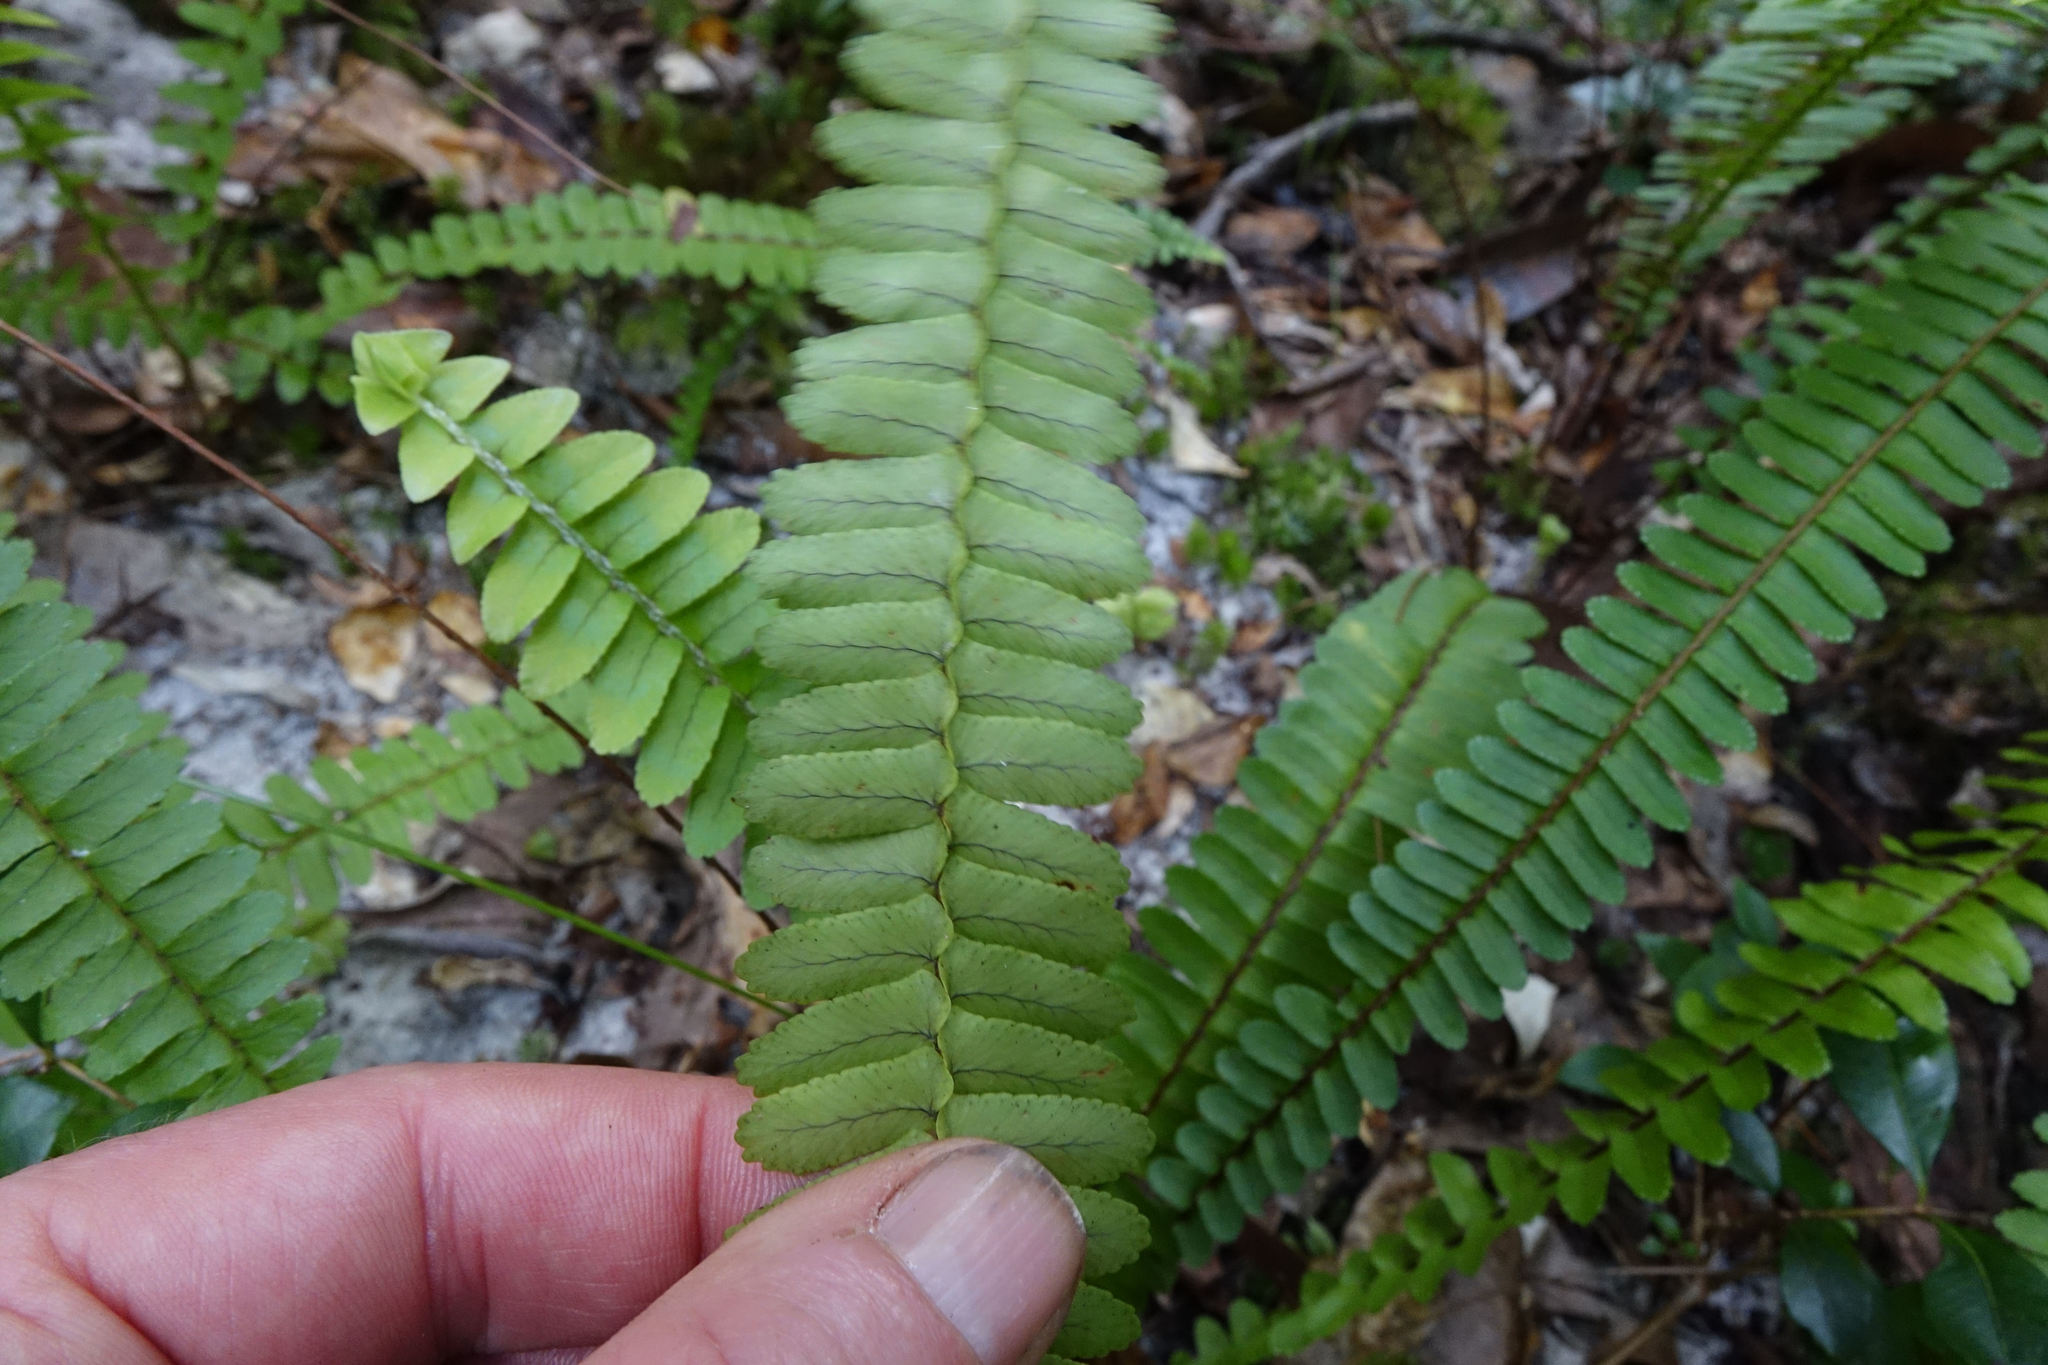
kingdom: Plantae
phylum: Tracheophyta
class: Polypodiopsida
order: Polypodiales
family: Nephrolepidaceae
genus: Nephrolepis
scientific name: Nephrolepis cordifolia
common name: Narrow swordfern
